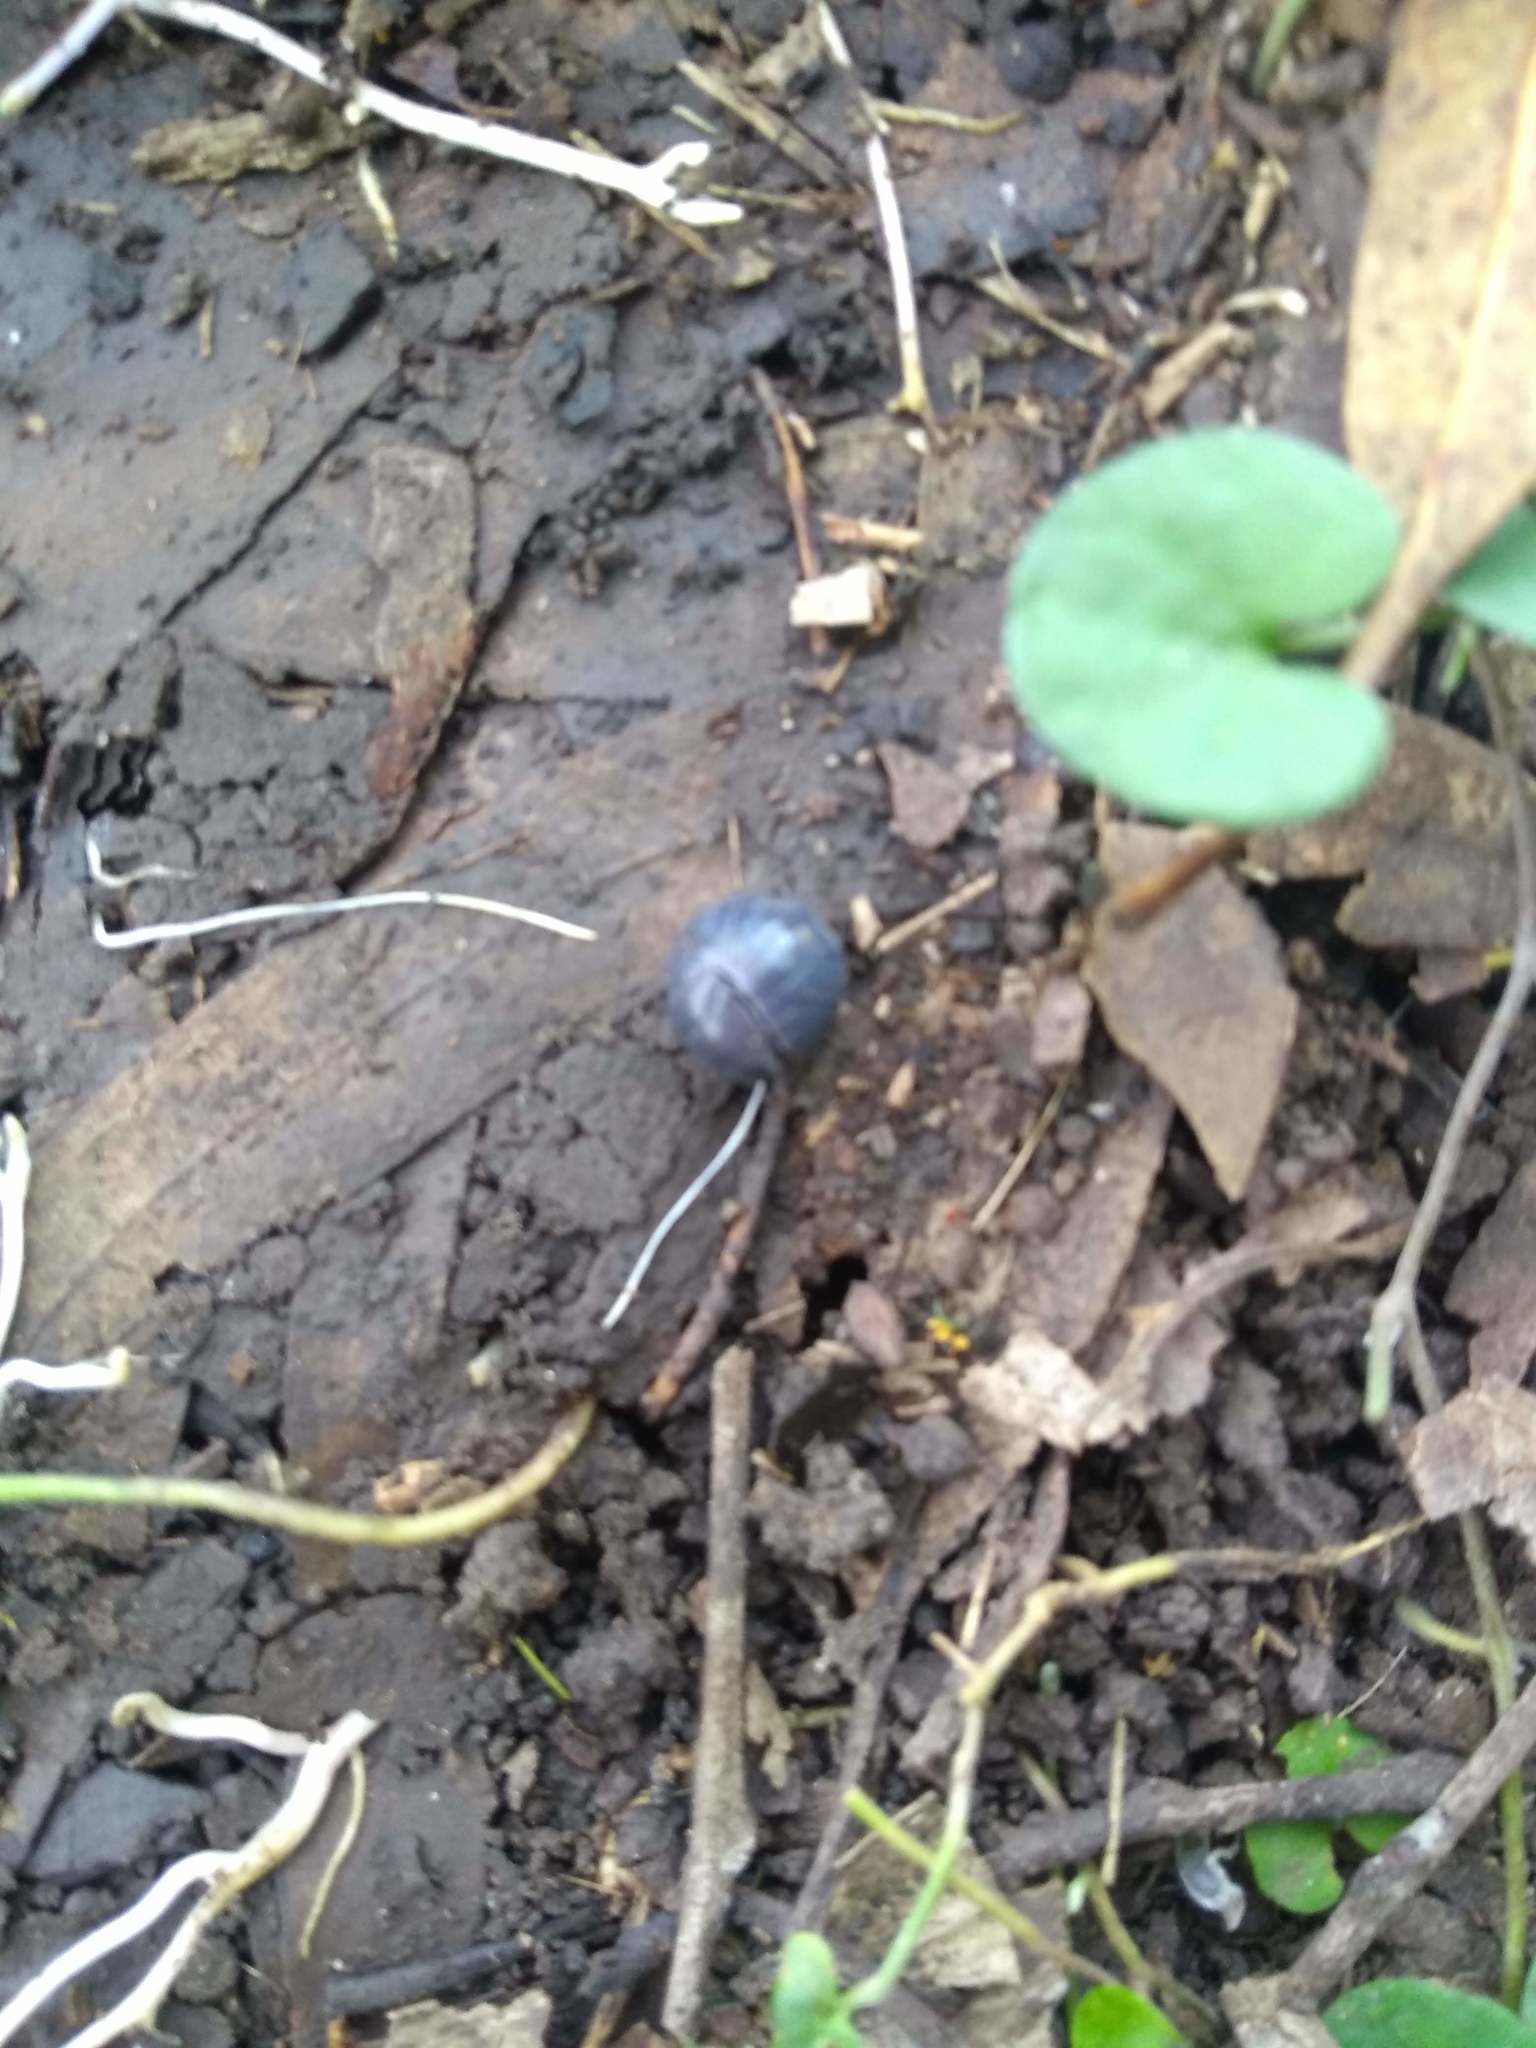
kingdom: Animalia
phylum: Arthropoda
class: Malacostraca
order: Isopoda
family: Armadillidiidae
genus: Armadillidium
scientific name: Armadillidium vulgare
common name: Common pill woodlouse
